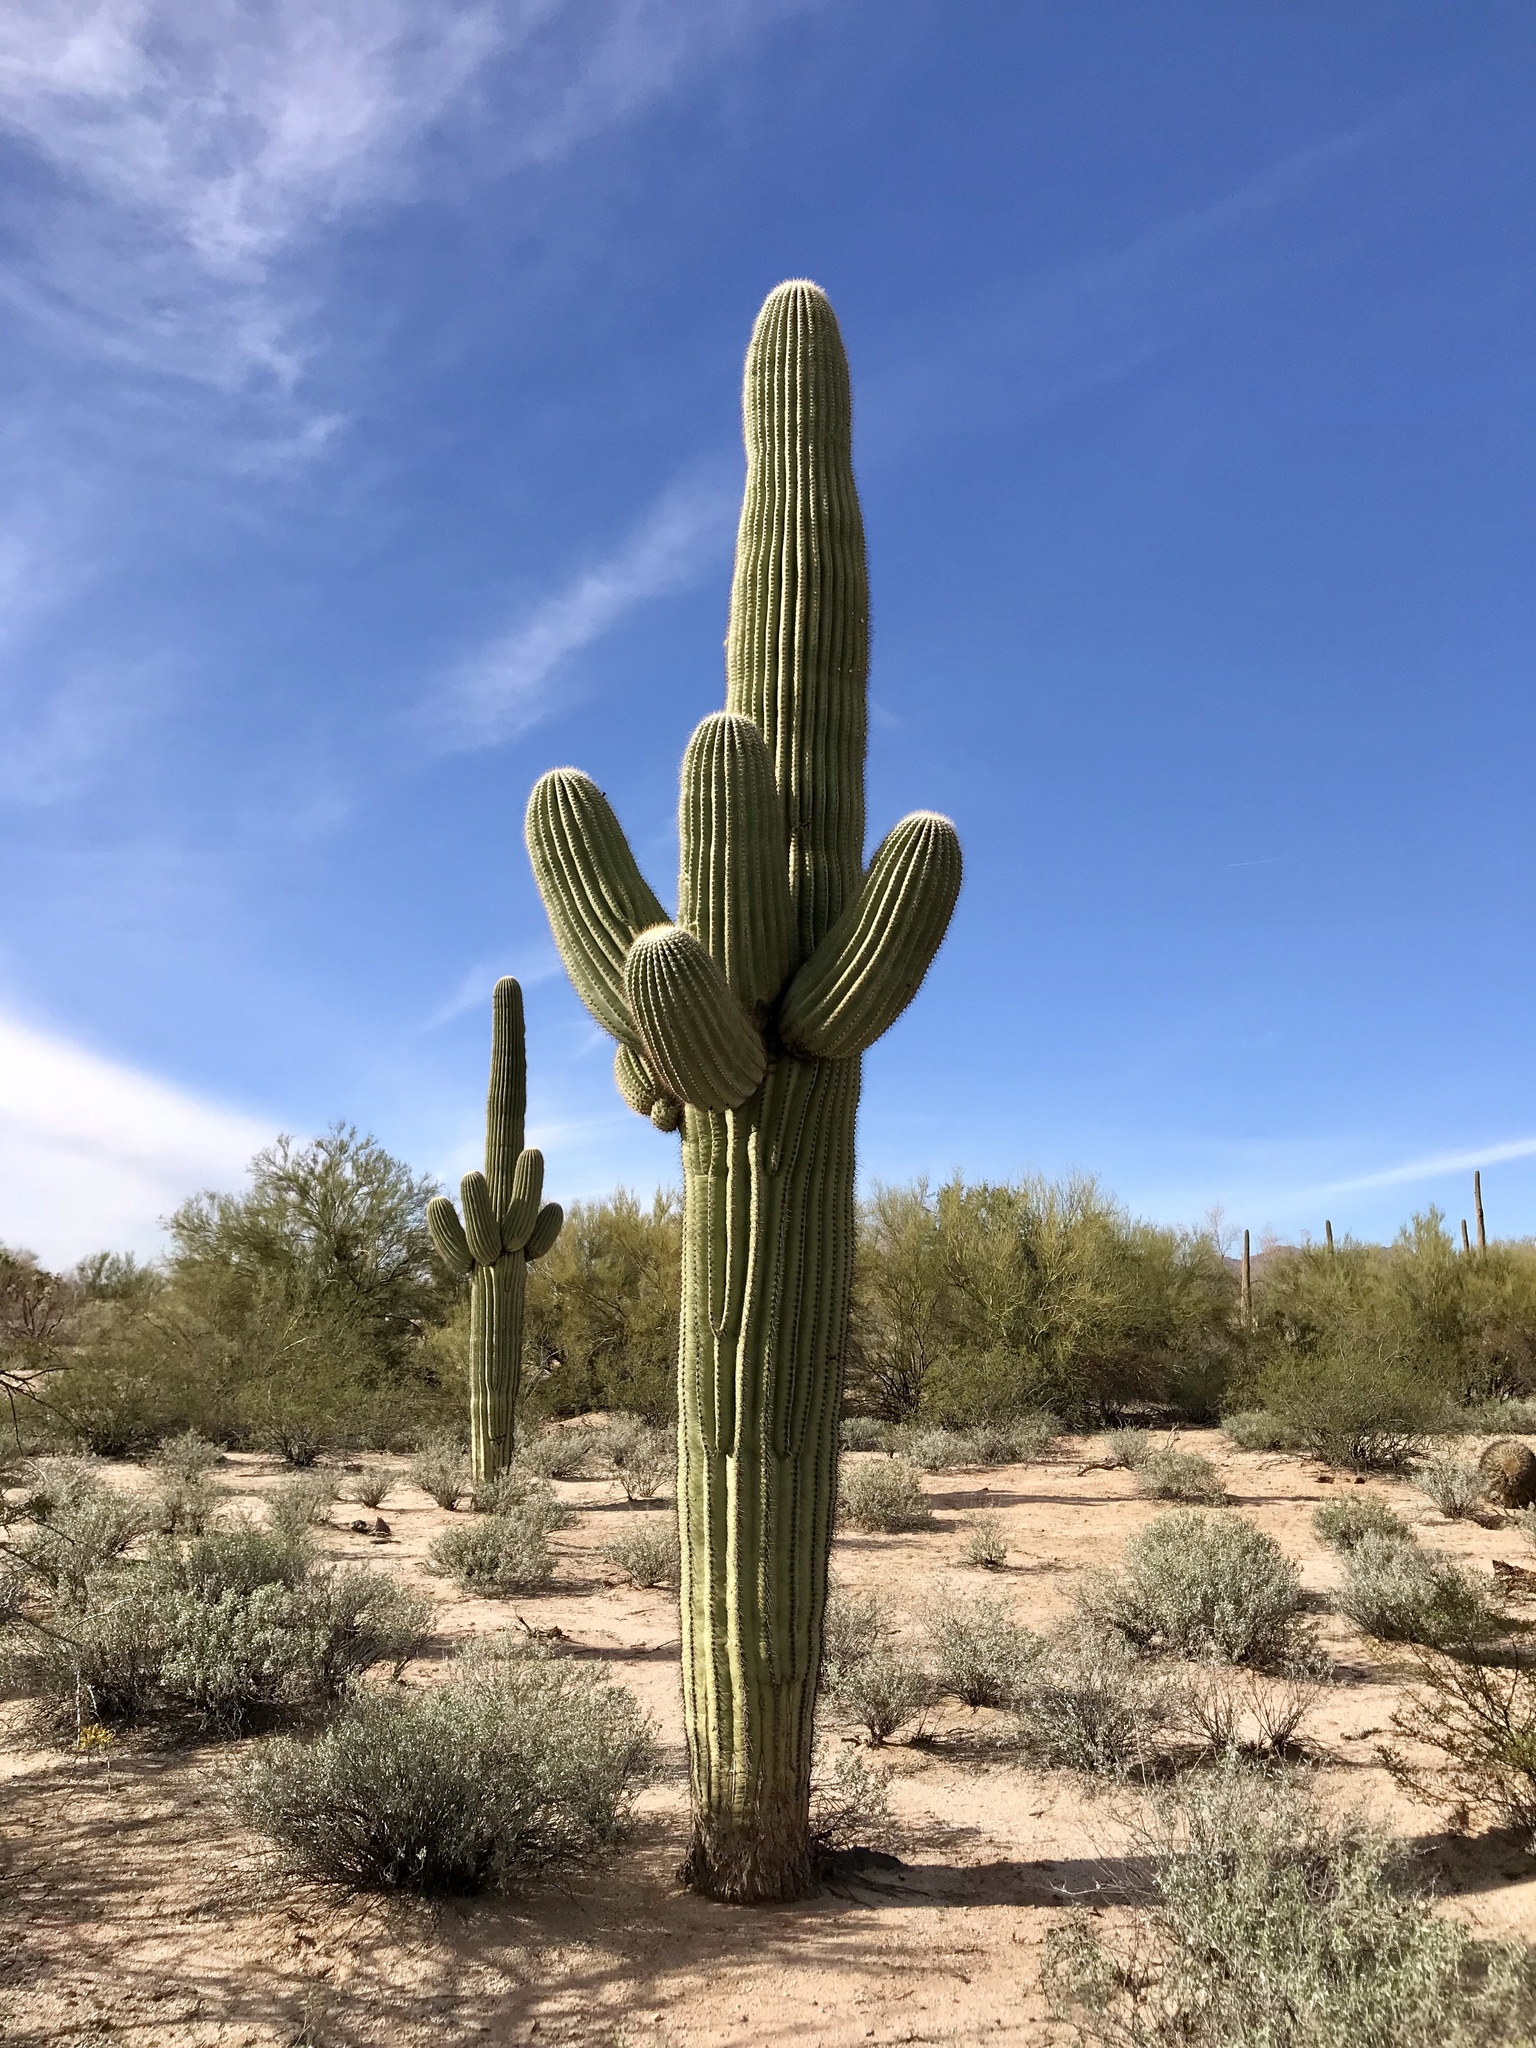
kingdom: Plantae
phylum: Tracheophyta
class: Magnoliopsida
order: Caryophyllales
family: Cactaceae
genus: Carnegiea
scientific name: Carnegiea gigantea
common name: Saguaro
